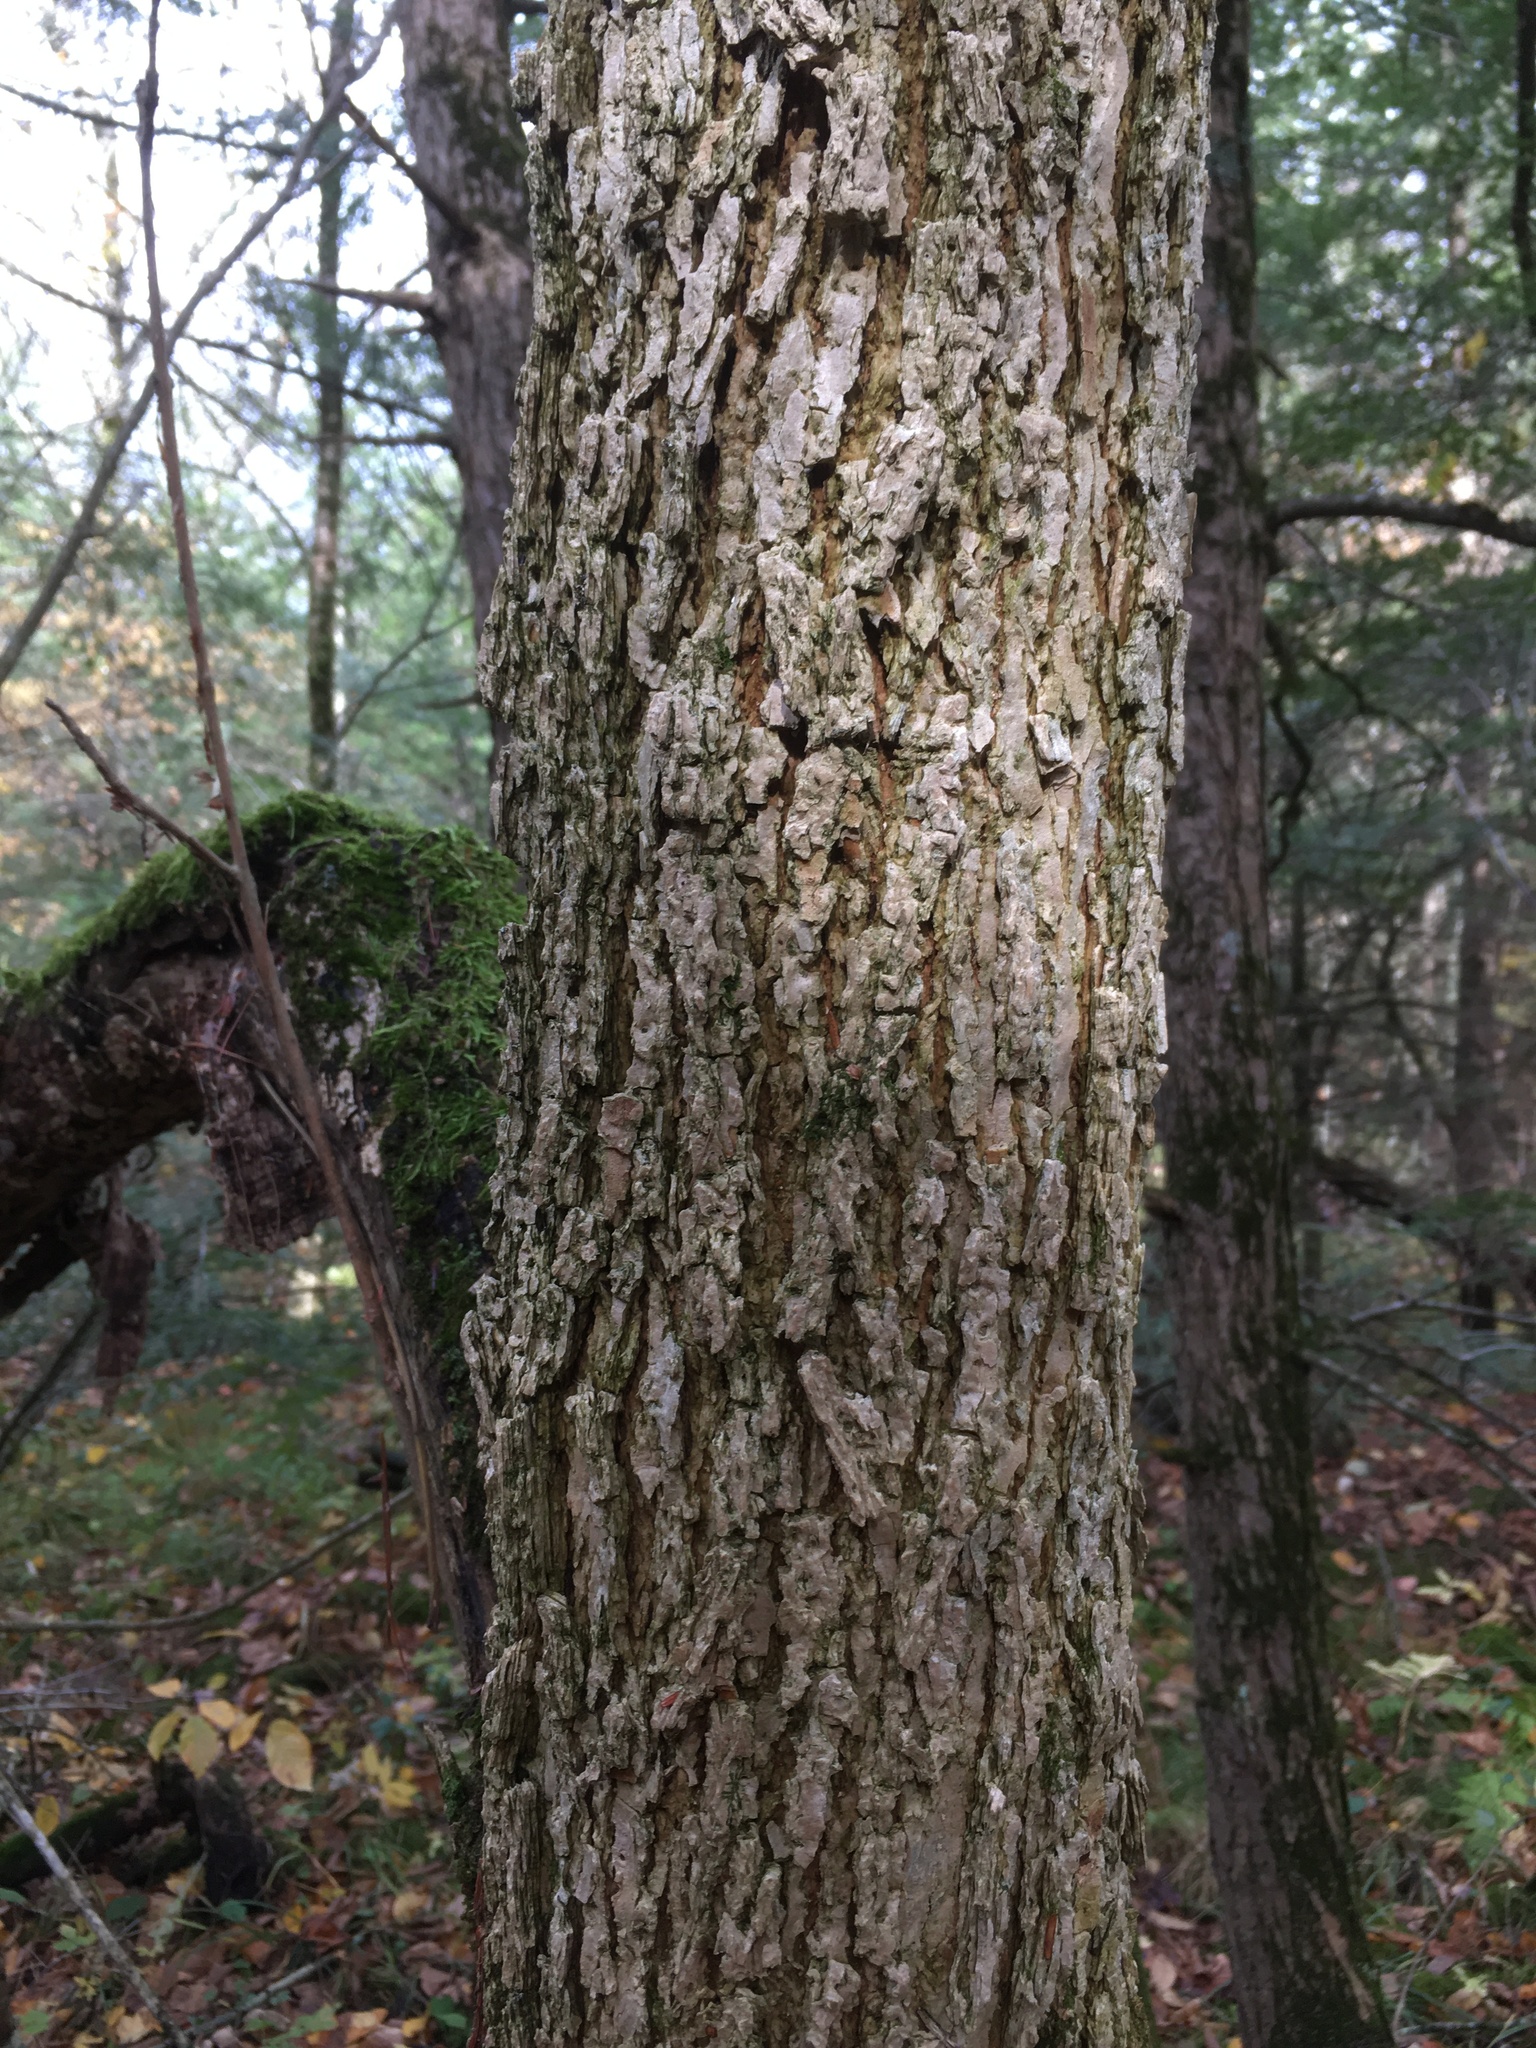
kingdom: Plantae
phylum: Tracheophyta
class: Magnoliopsida
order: Lamiales
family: Oleaceae
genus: Fraxinus
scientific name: Fraxinus nigra
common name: Black ash
